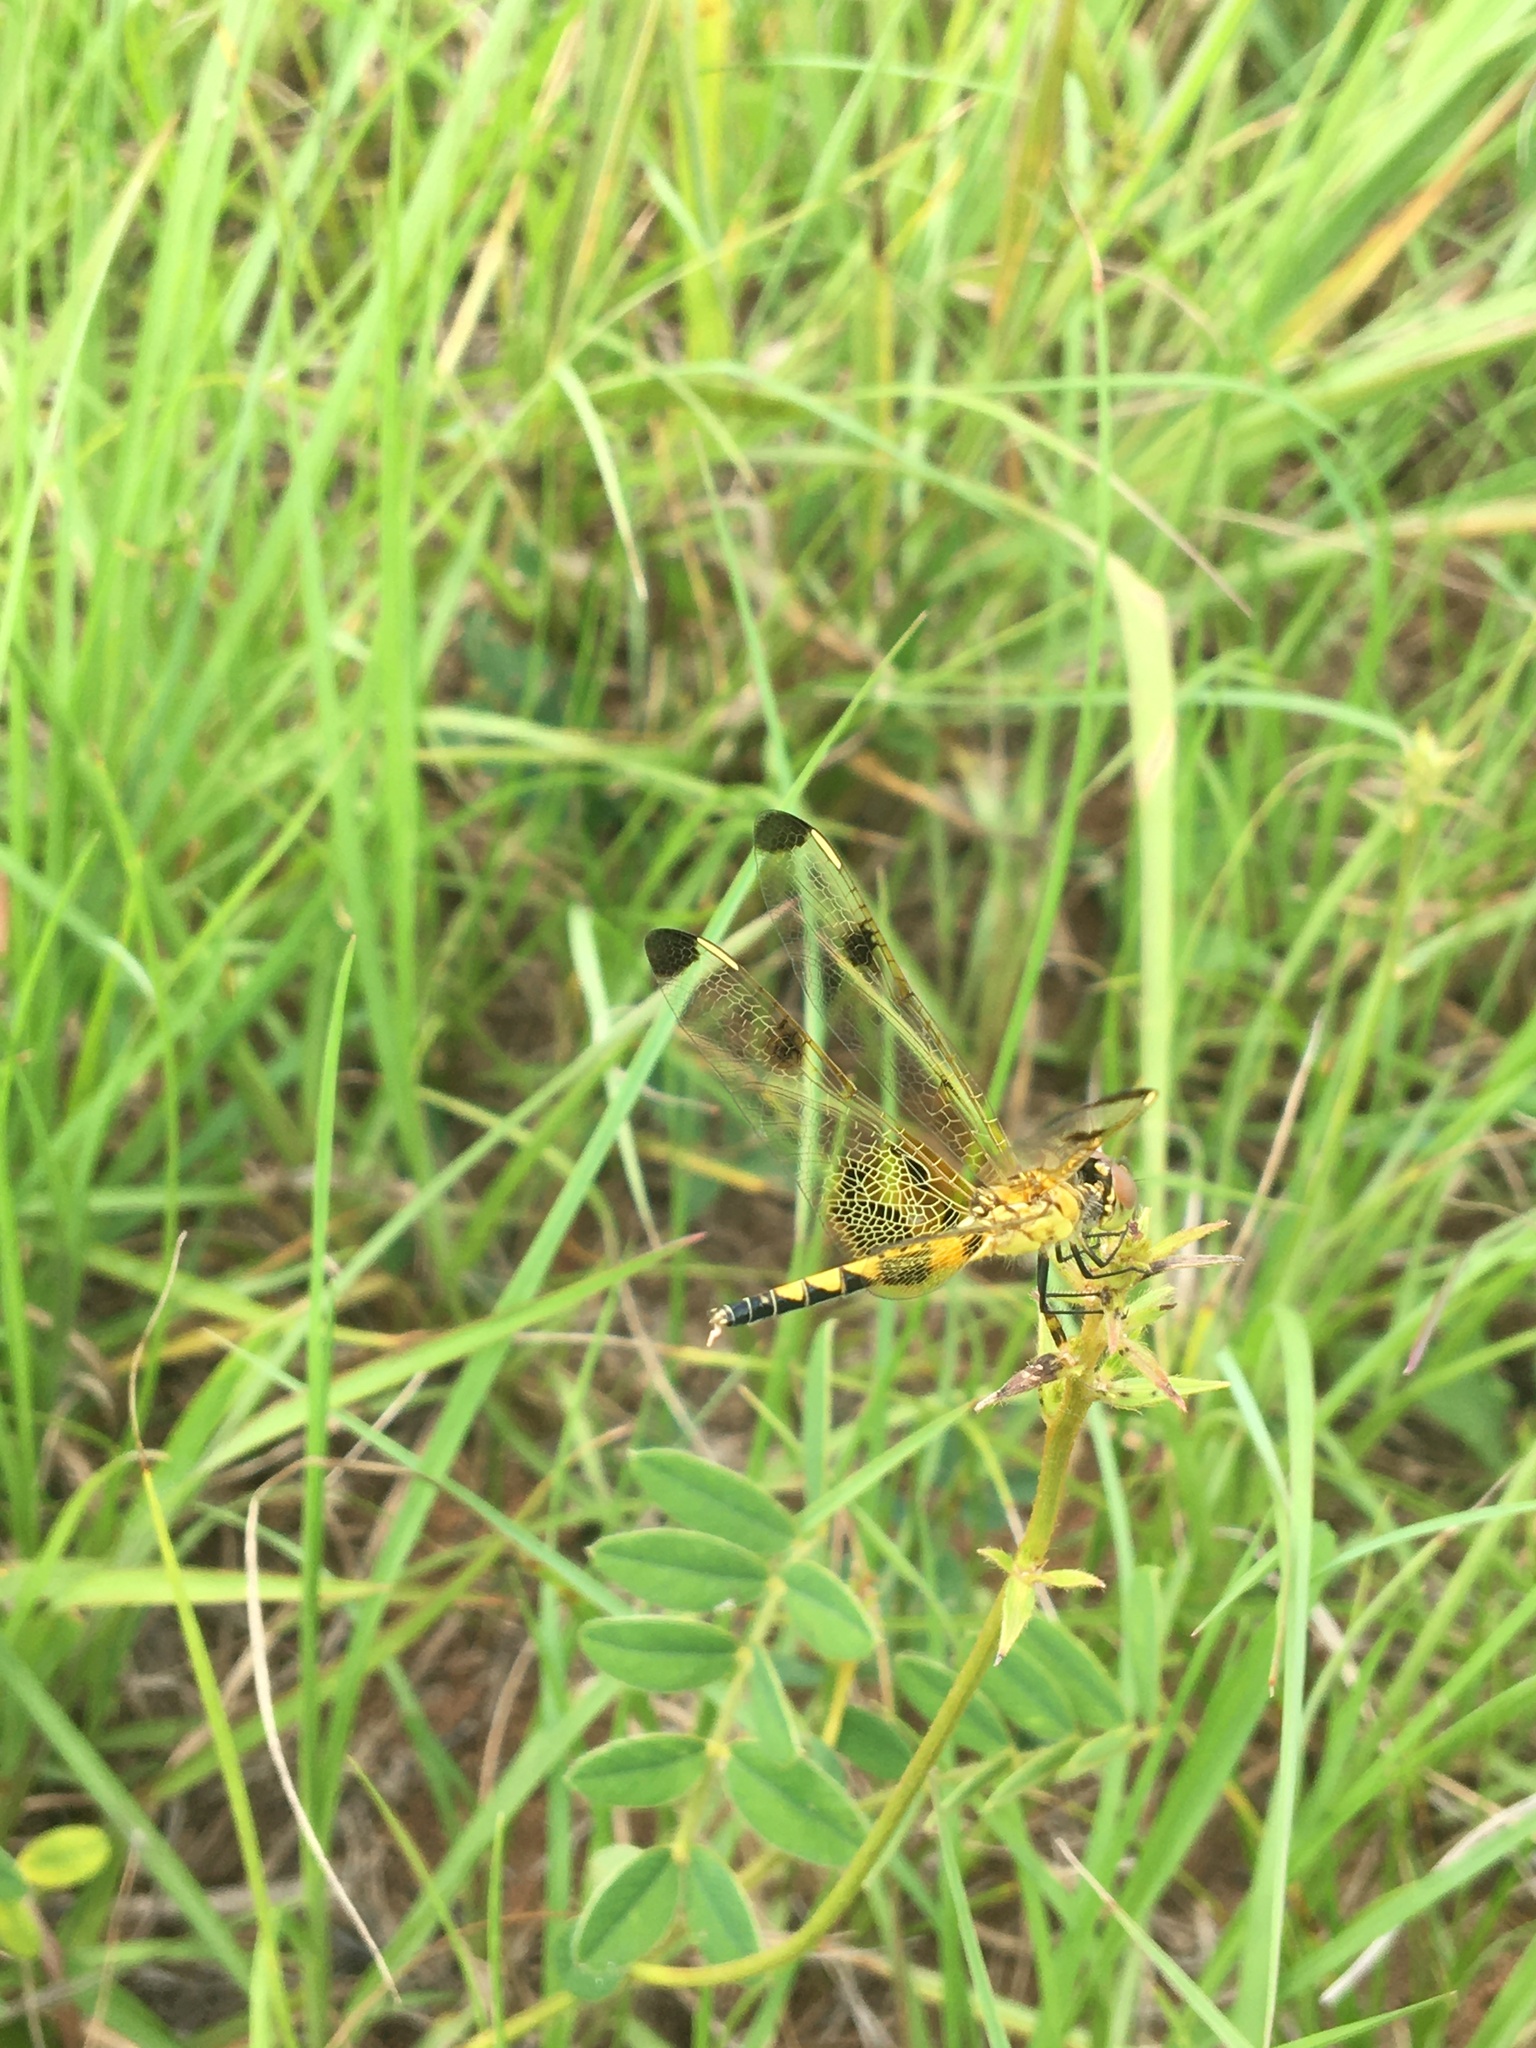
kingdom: Animalia
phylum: Arthropoda
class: Insecta
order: Odonata
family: Libellulidae
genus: Celithemis
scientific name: Celithemis elisa
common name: Calico pennant
